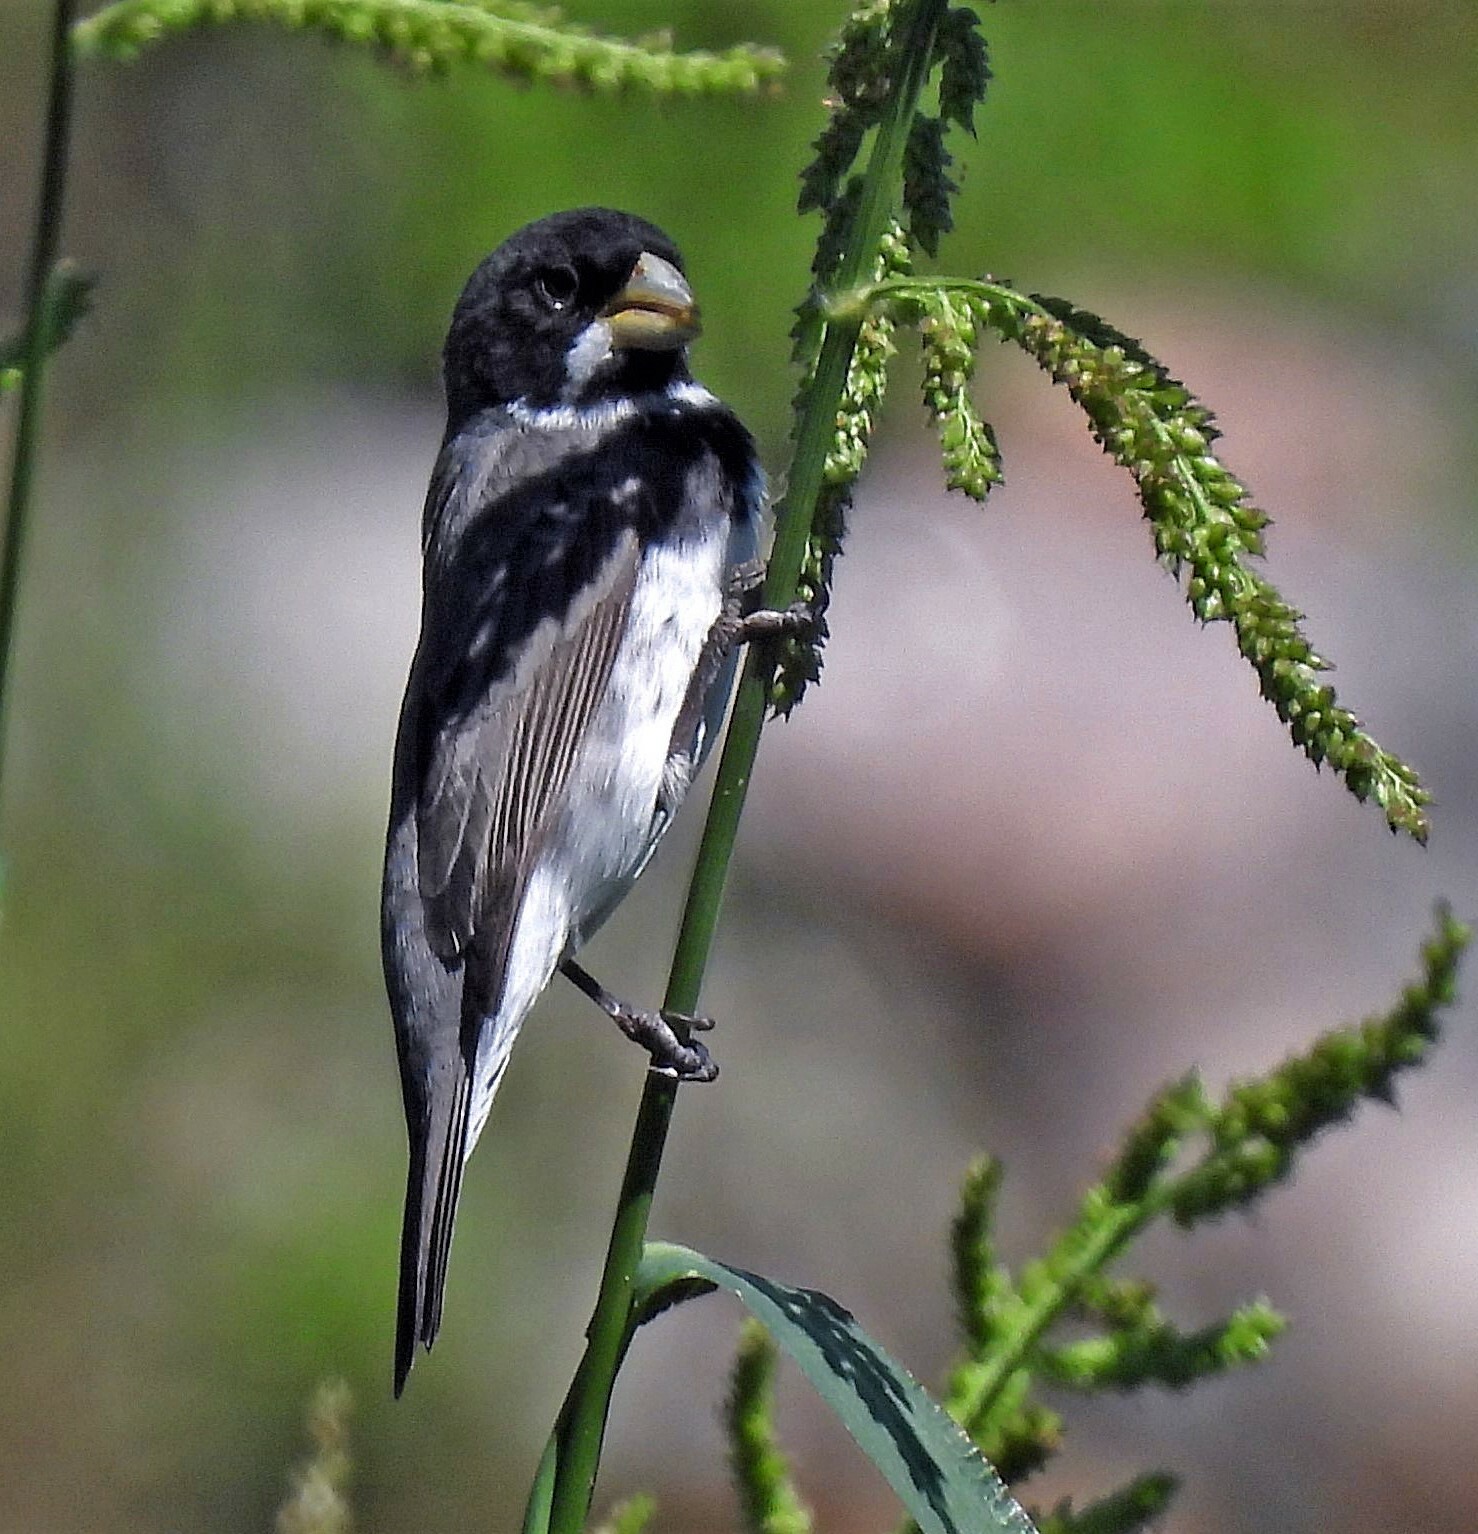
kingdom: Animalia
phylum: Chordata
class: Aves
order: Passeriformes
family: Thraupidae
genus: Sporophila
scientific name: Sporophila caerulescens
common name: Double-collared seedeater
